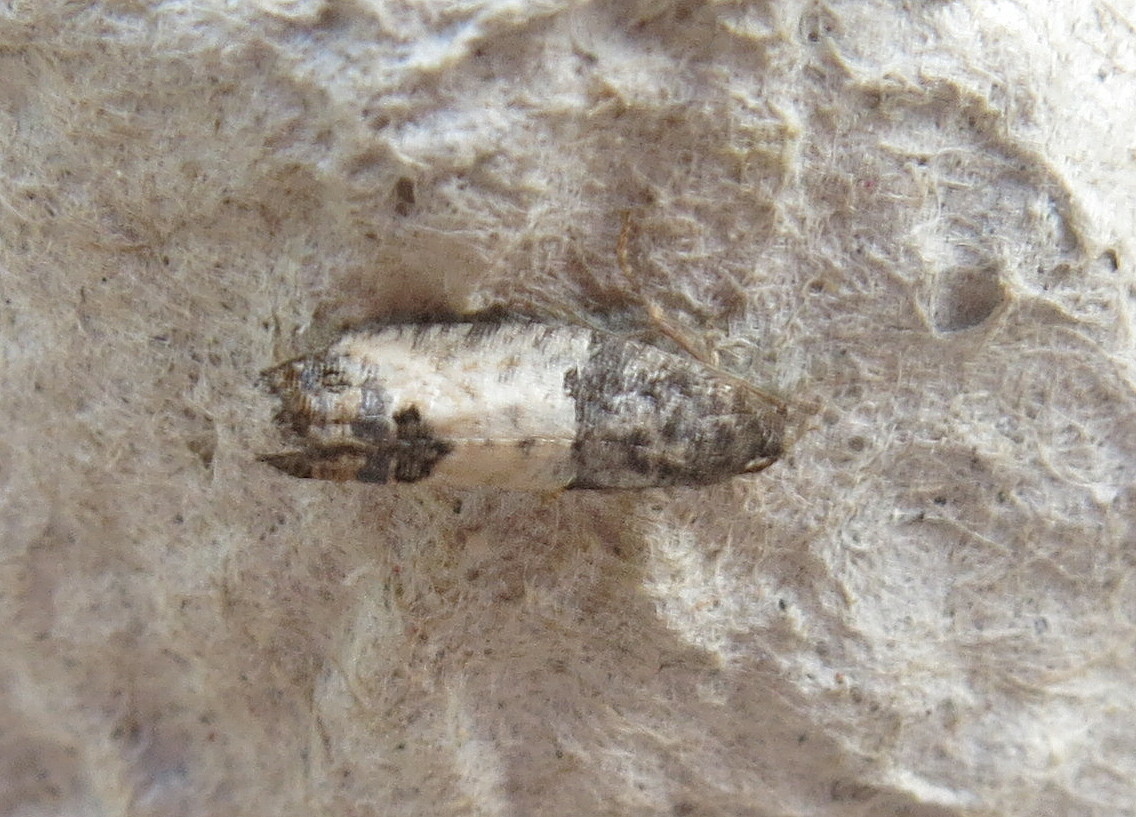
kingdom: Animalia
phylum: Arthropoda
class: Insecta
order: Lepidoptera
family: Tortricidae
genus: Spilonota
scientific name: Spilonota ocellana
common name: Bud moth
